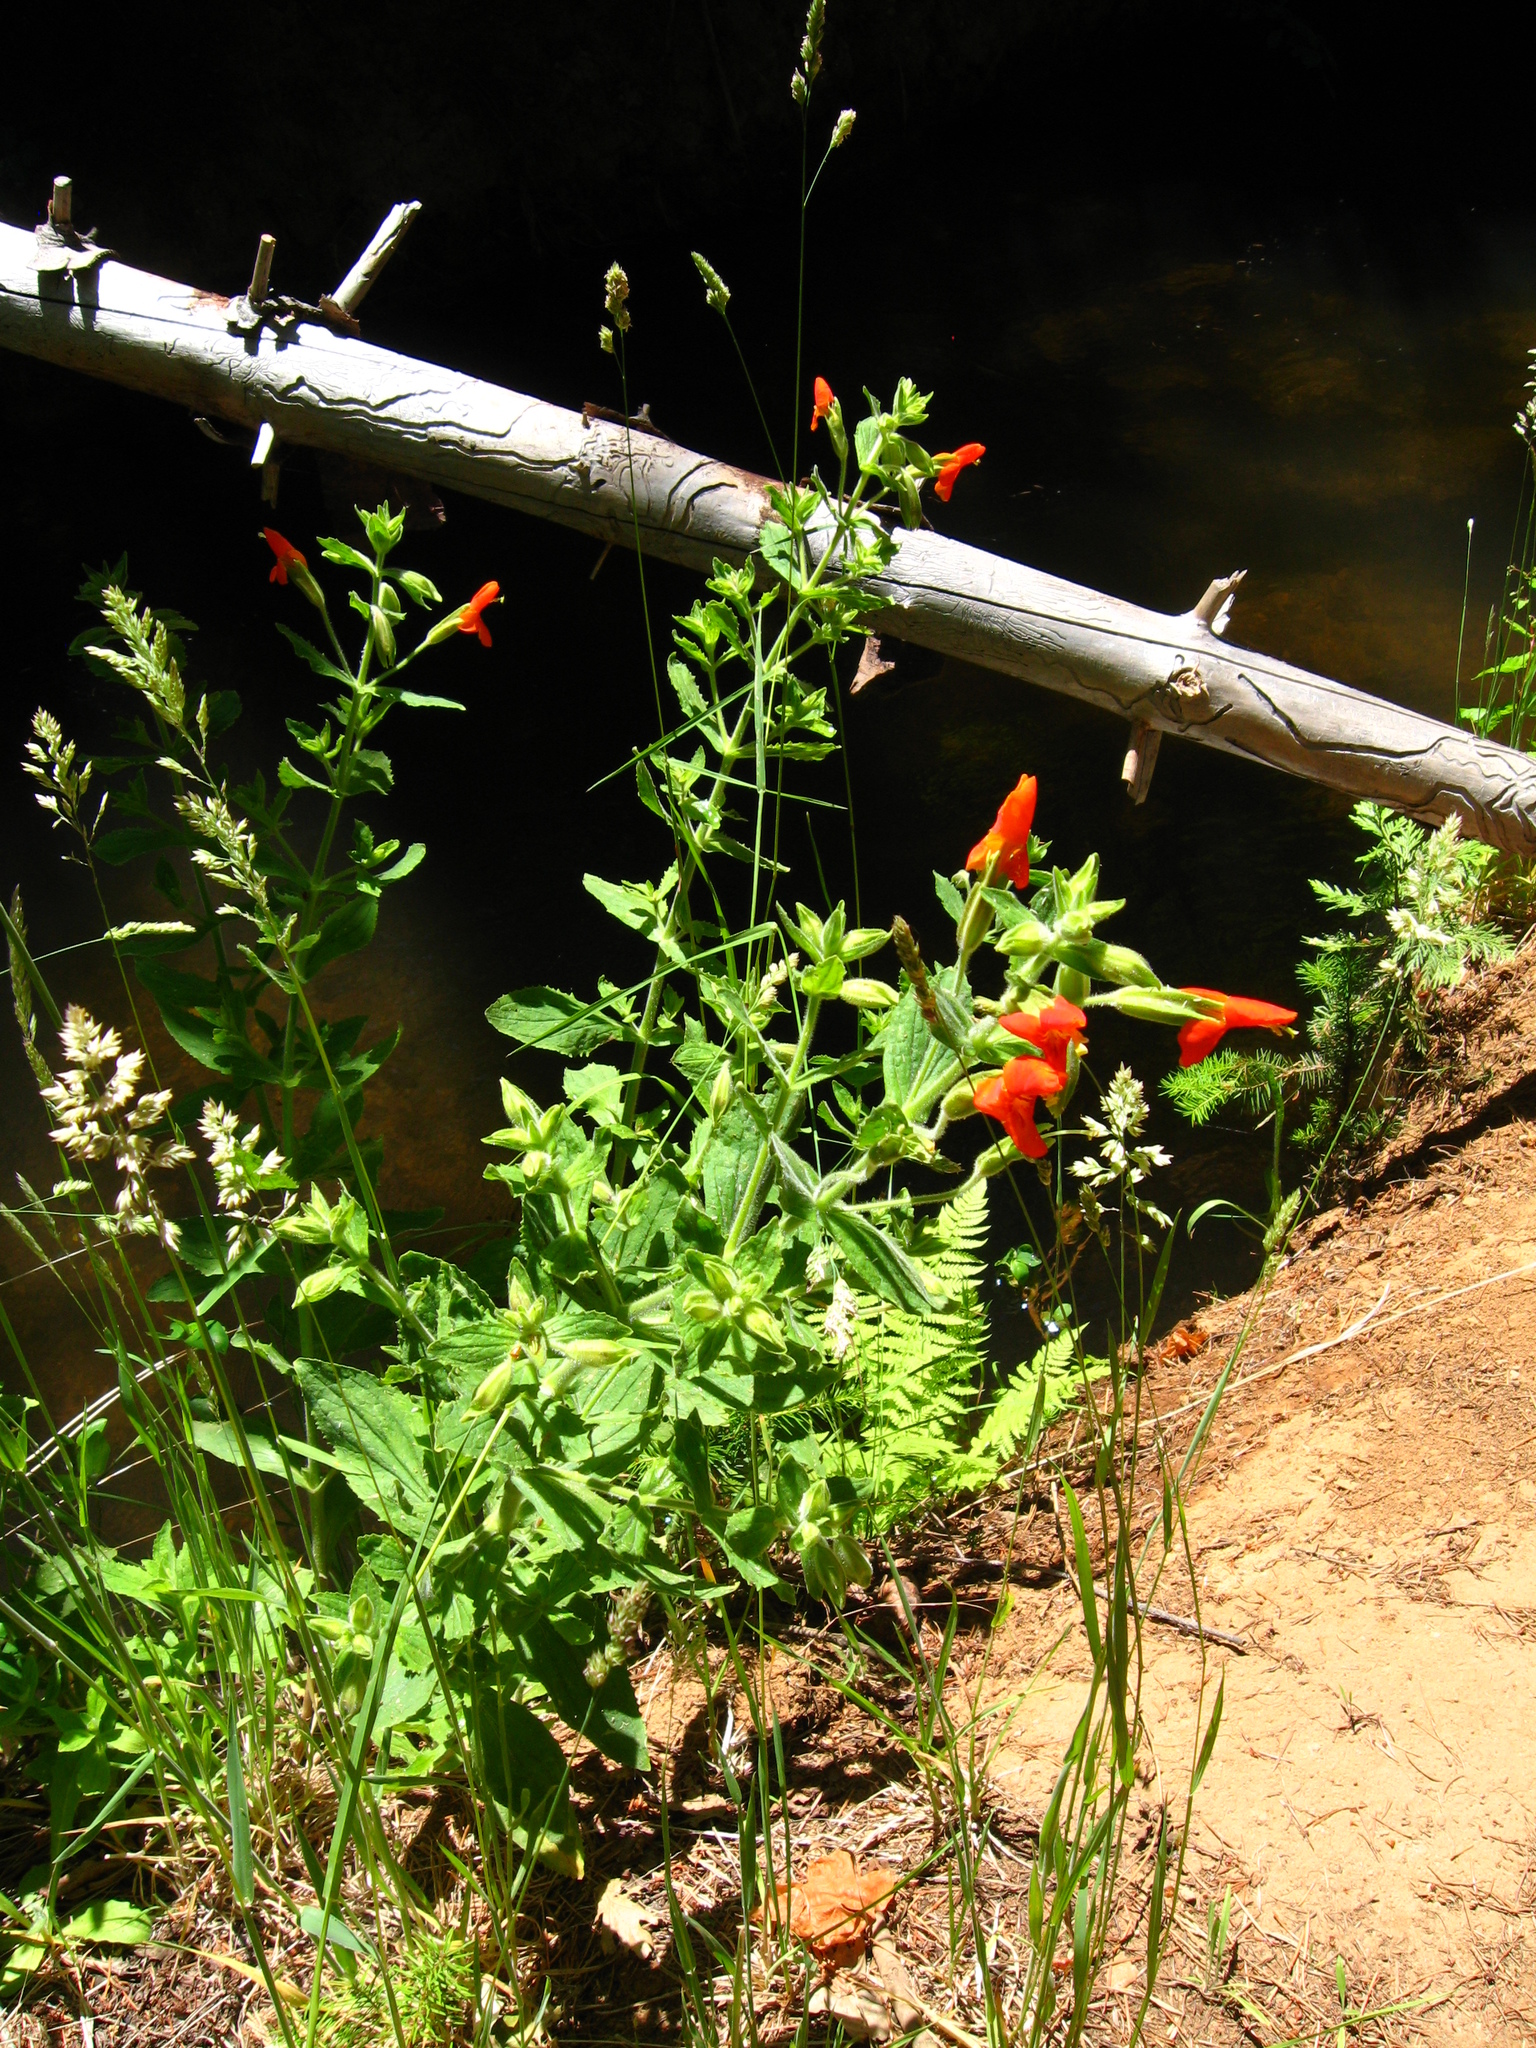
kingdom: Plantae
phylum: Tracheophyta
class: Magnoliopsida
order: Lamiales
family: Phrymaceae
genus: Erythranthe
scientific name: Erythranthe cardinalis
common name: Scarlet monkey-flower
